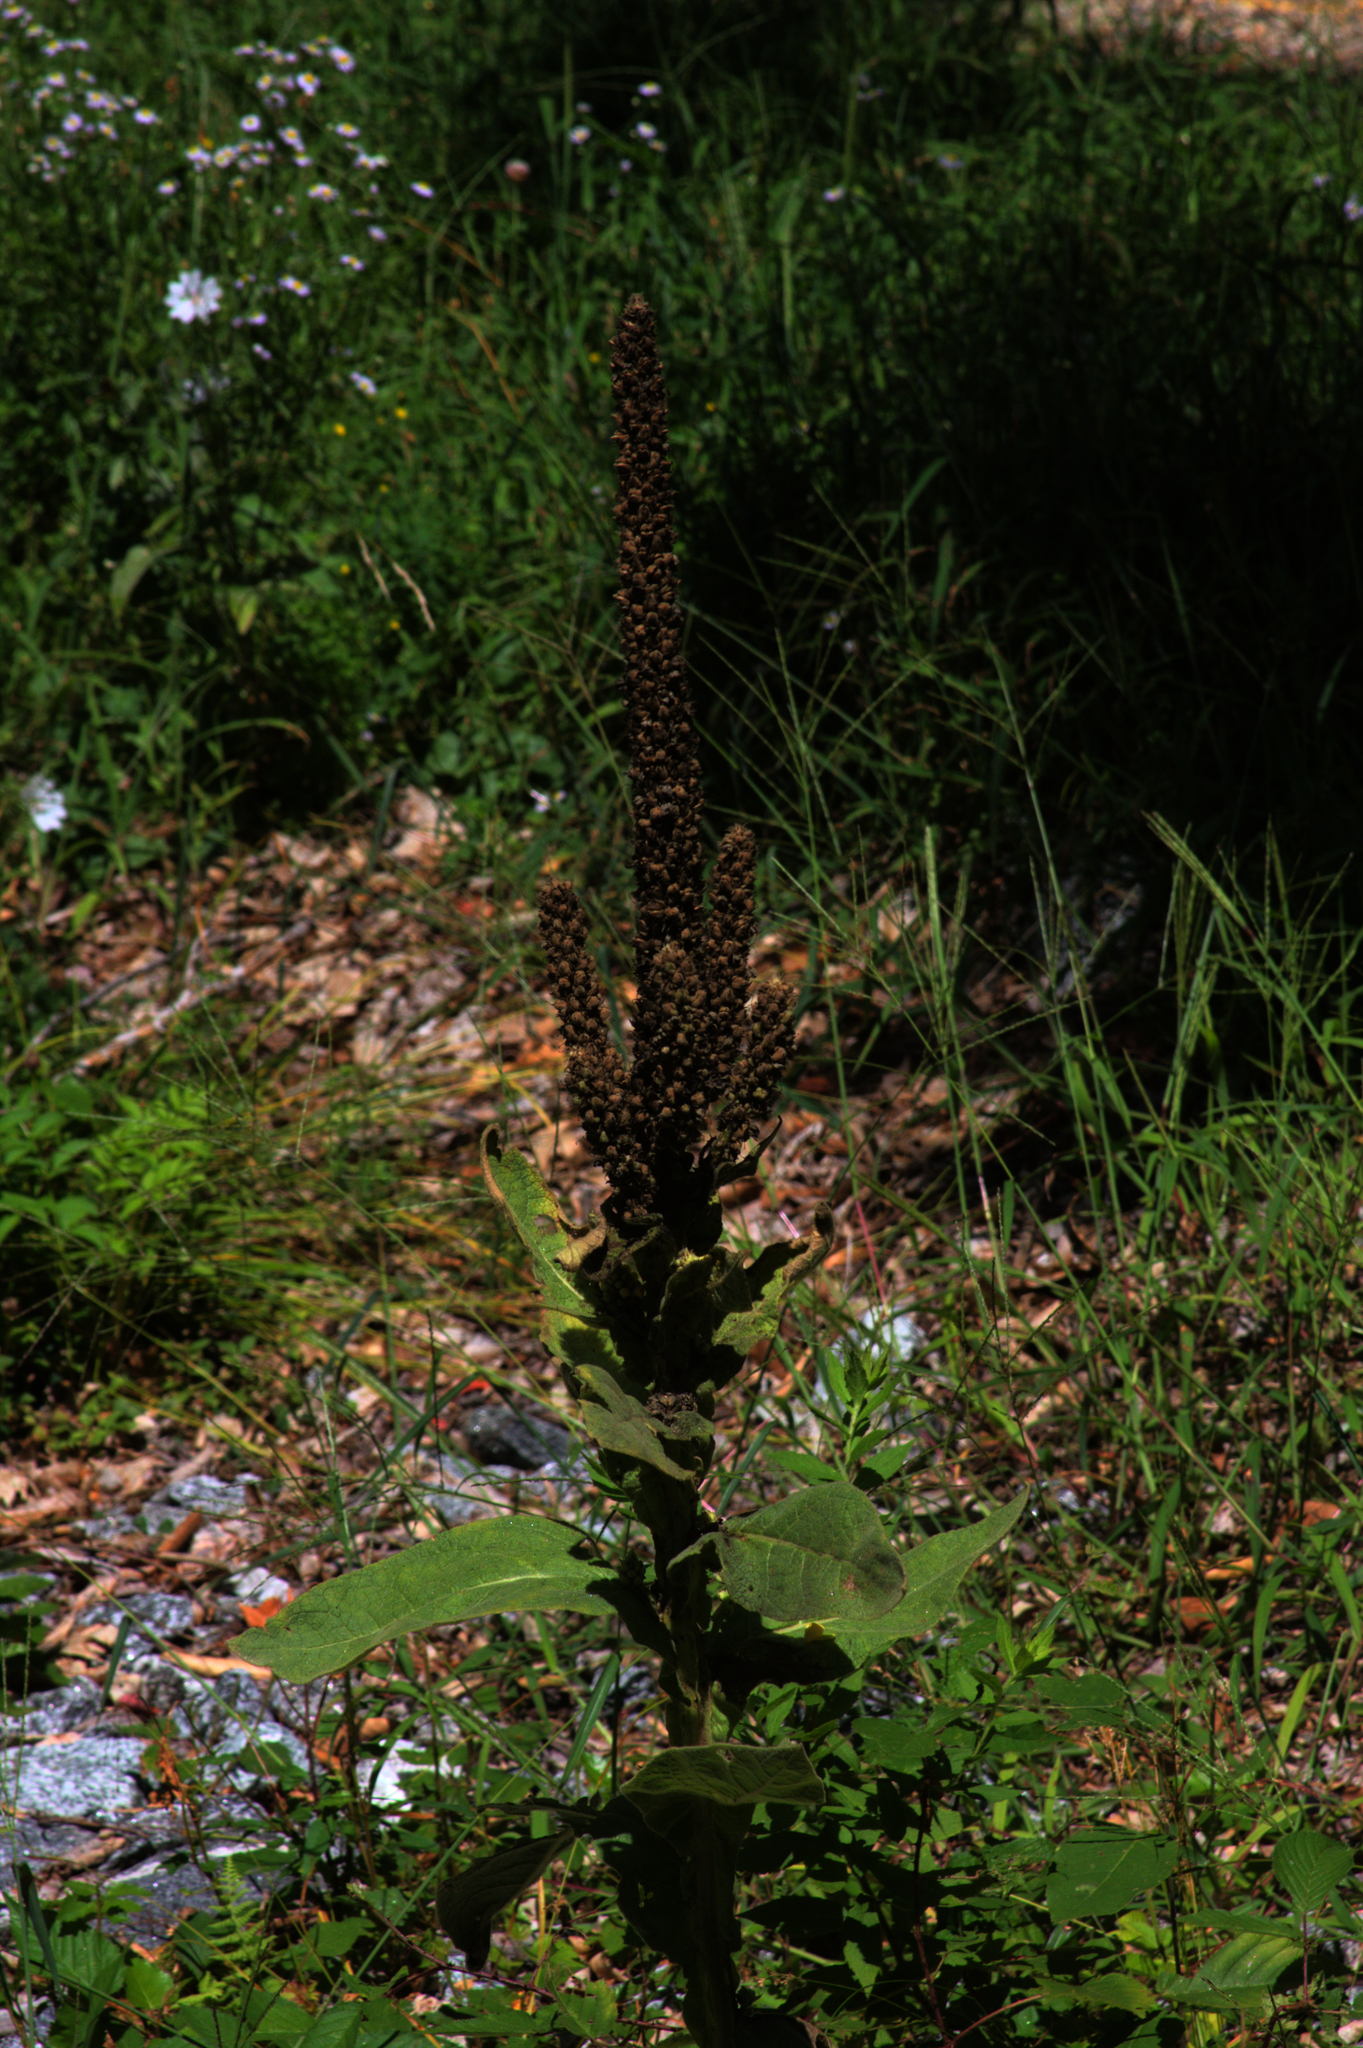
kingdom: Plantae
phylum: Tracheophyta
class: Magnoliopsida
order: Lamiales
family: Scrophulariaceae
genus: Verbascum
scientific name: Verbascum thapsus
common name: Common mullein
